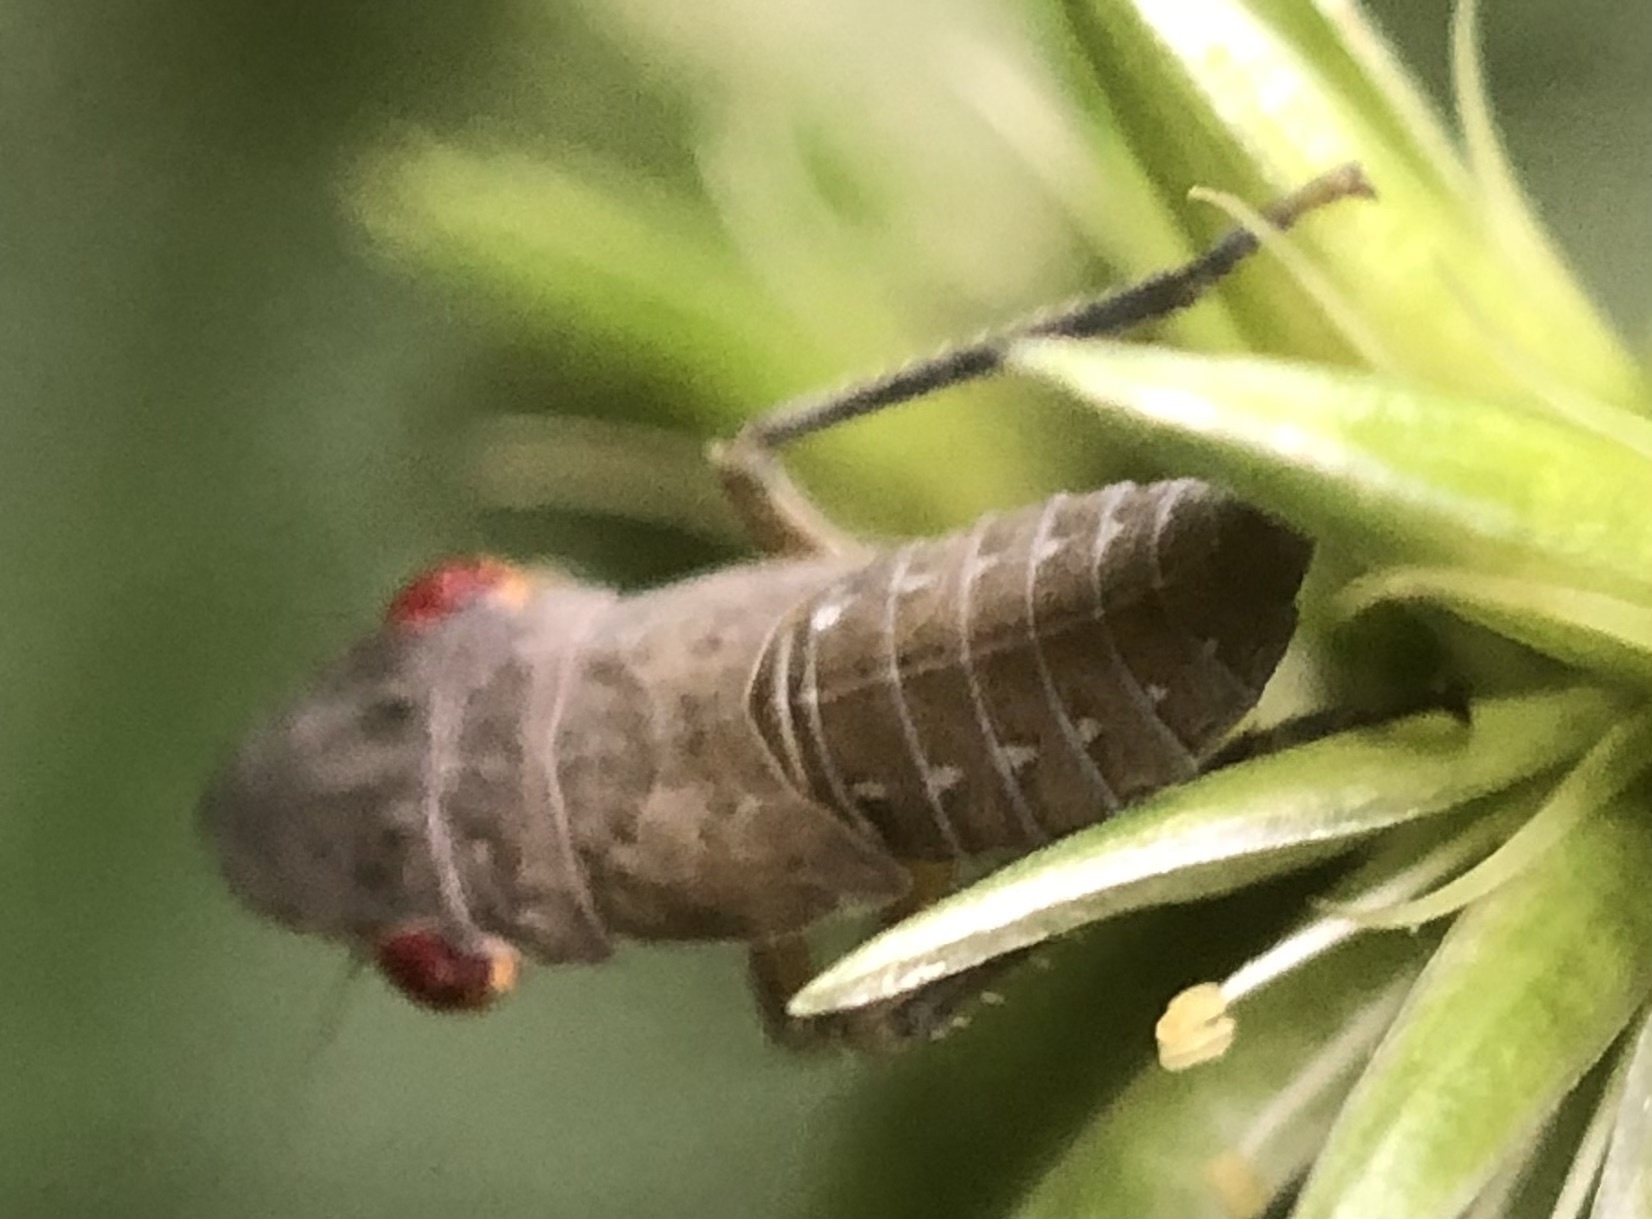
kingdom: Animalia
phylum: Arthropoda
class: Insecta
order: Hemiptera
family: Cicadellidae
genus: Homalodisca
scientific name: Homalodisca vitripennis
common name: Glassy-winged sharpshooter
